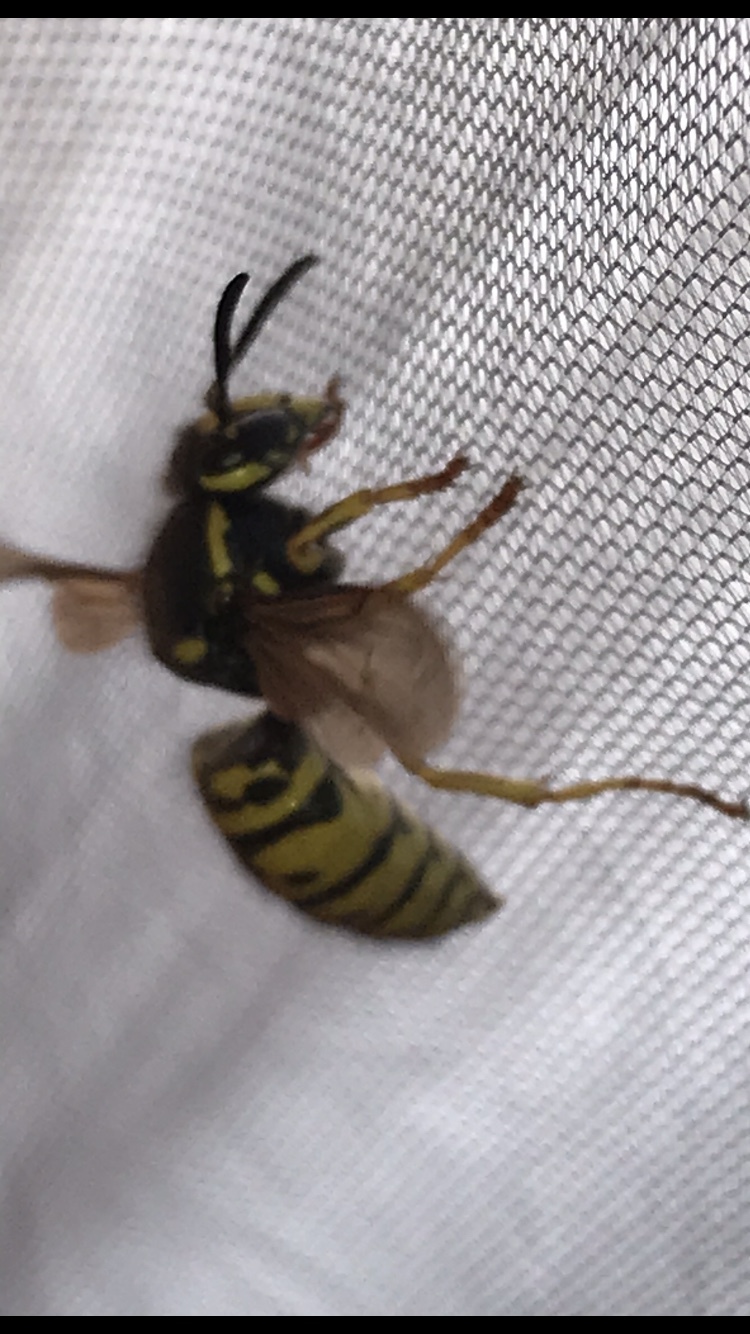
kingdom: Animalia
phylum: Arthropoda
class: Insecta
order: Hymenoptera
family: Vespidae
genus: Vespula
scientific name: Vespula atropilosa
